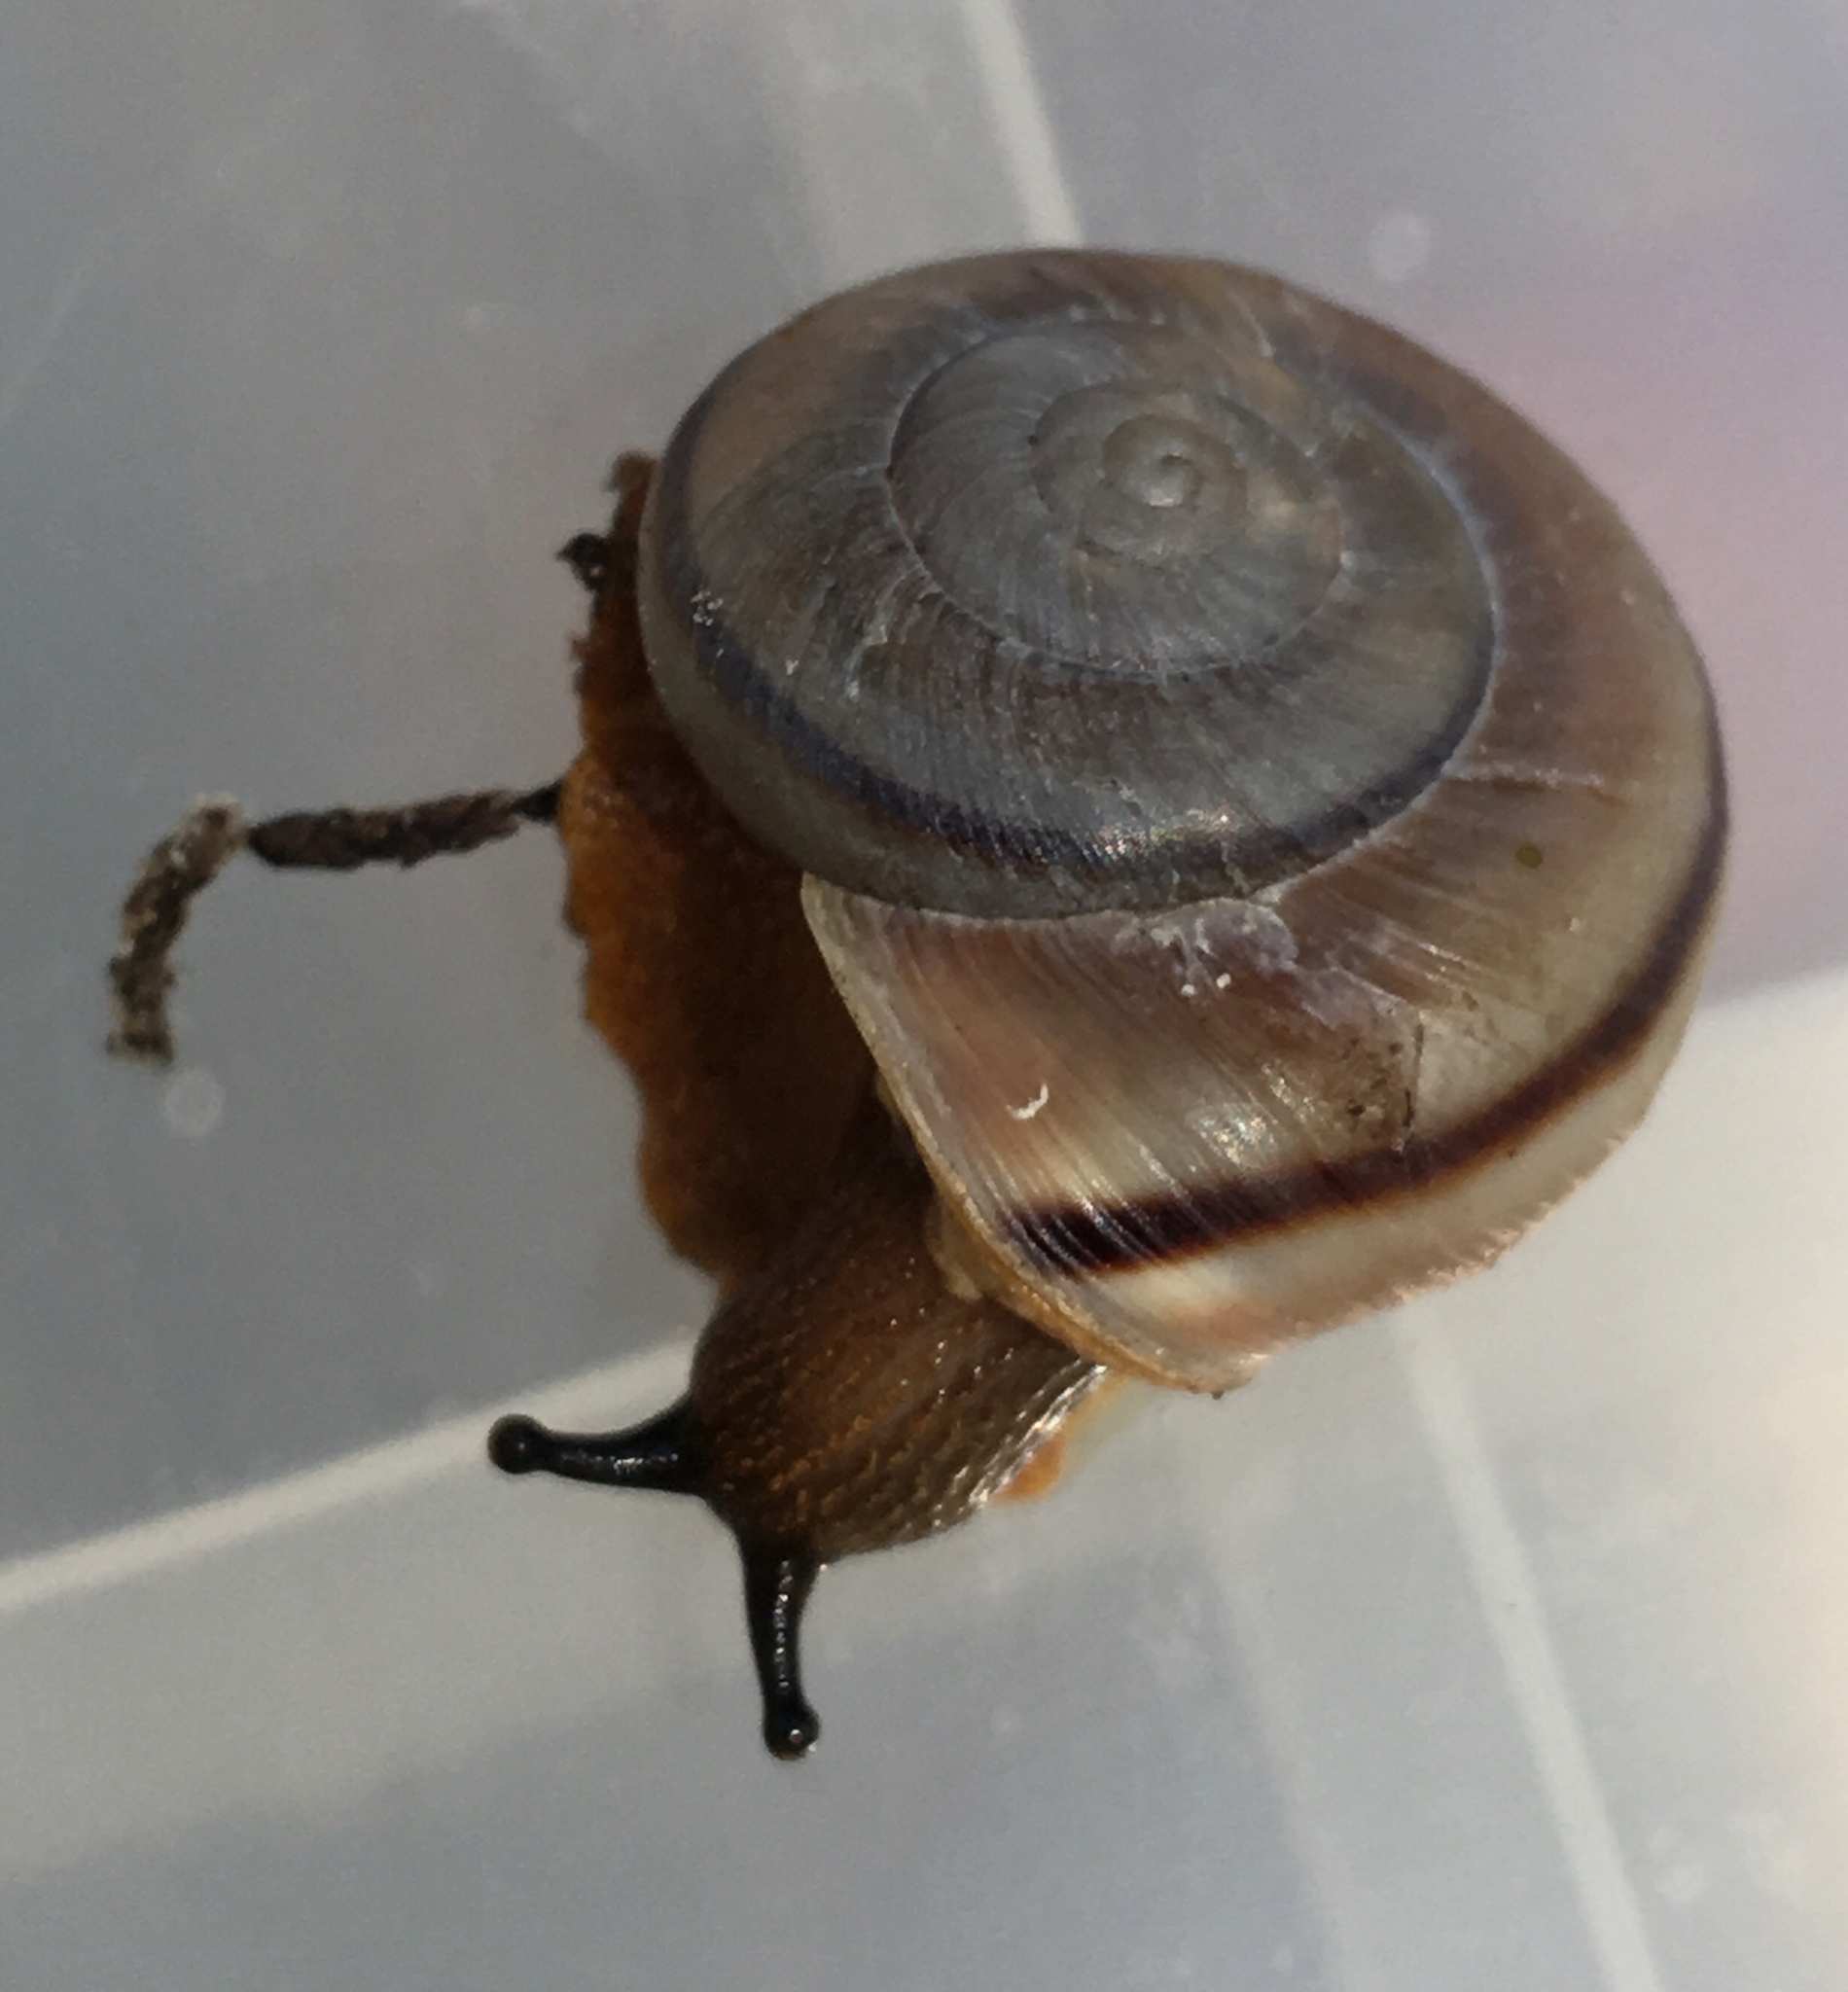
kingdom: Animalia
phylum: Mollusca
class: Gastropoda
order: Stylommatophora
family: Xanthonychidae
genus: Sonorella
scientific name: Sonorella virilis
